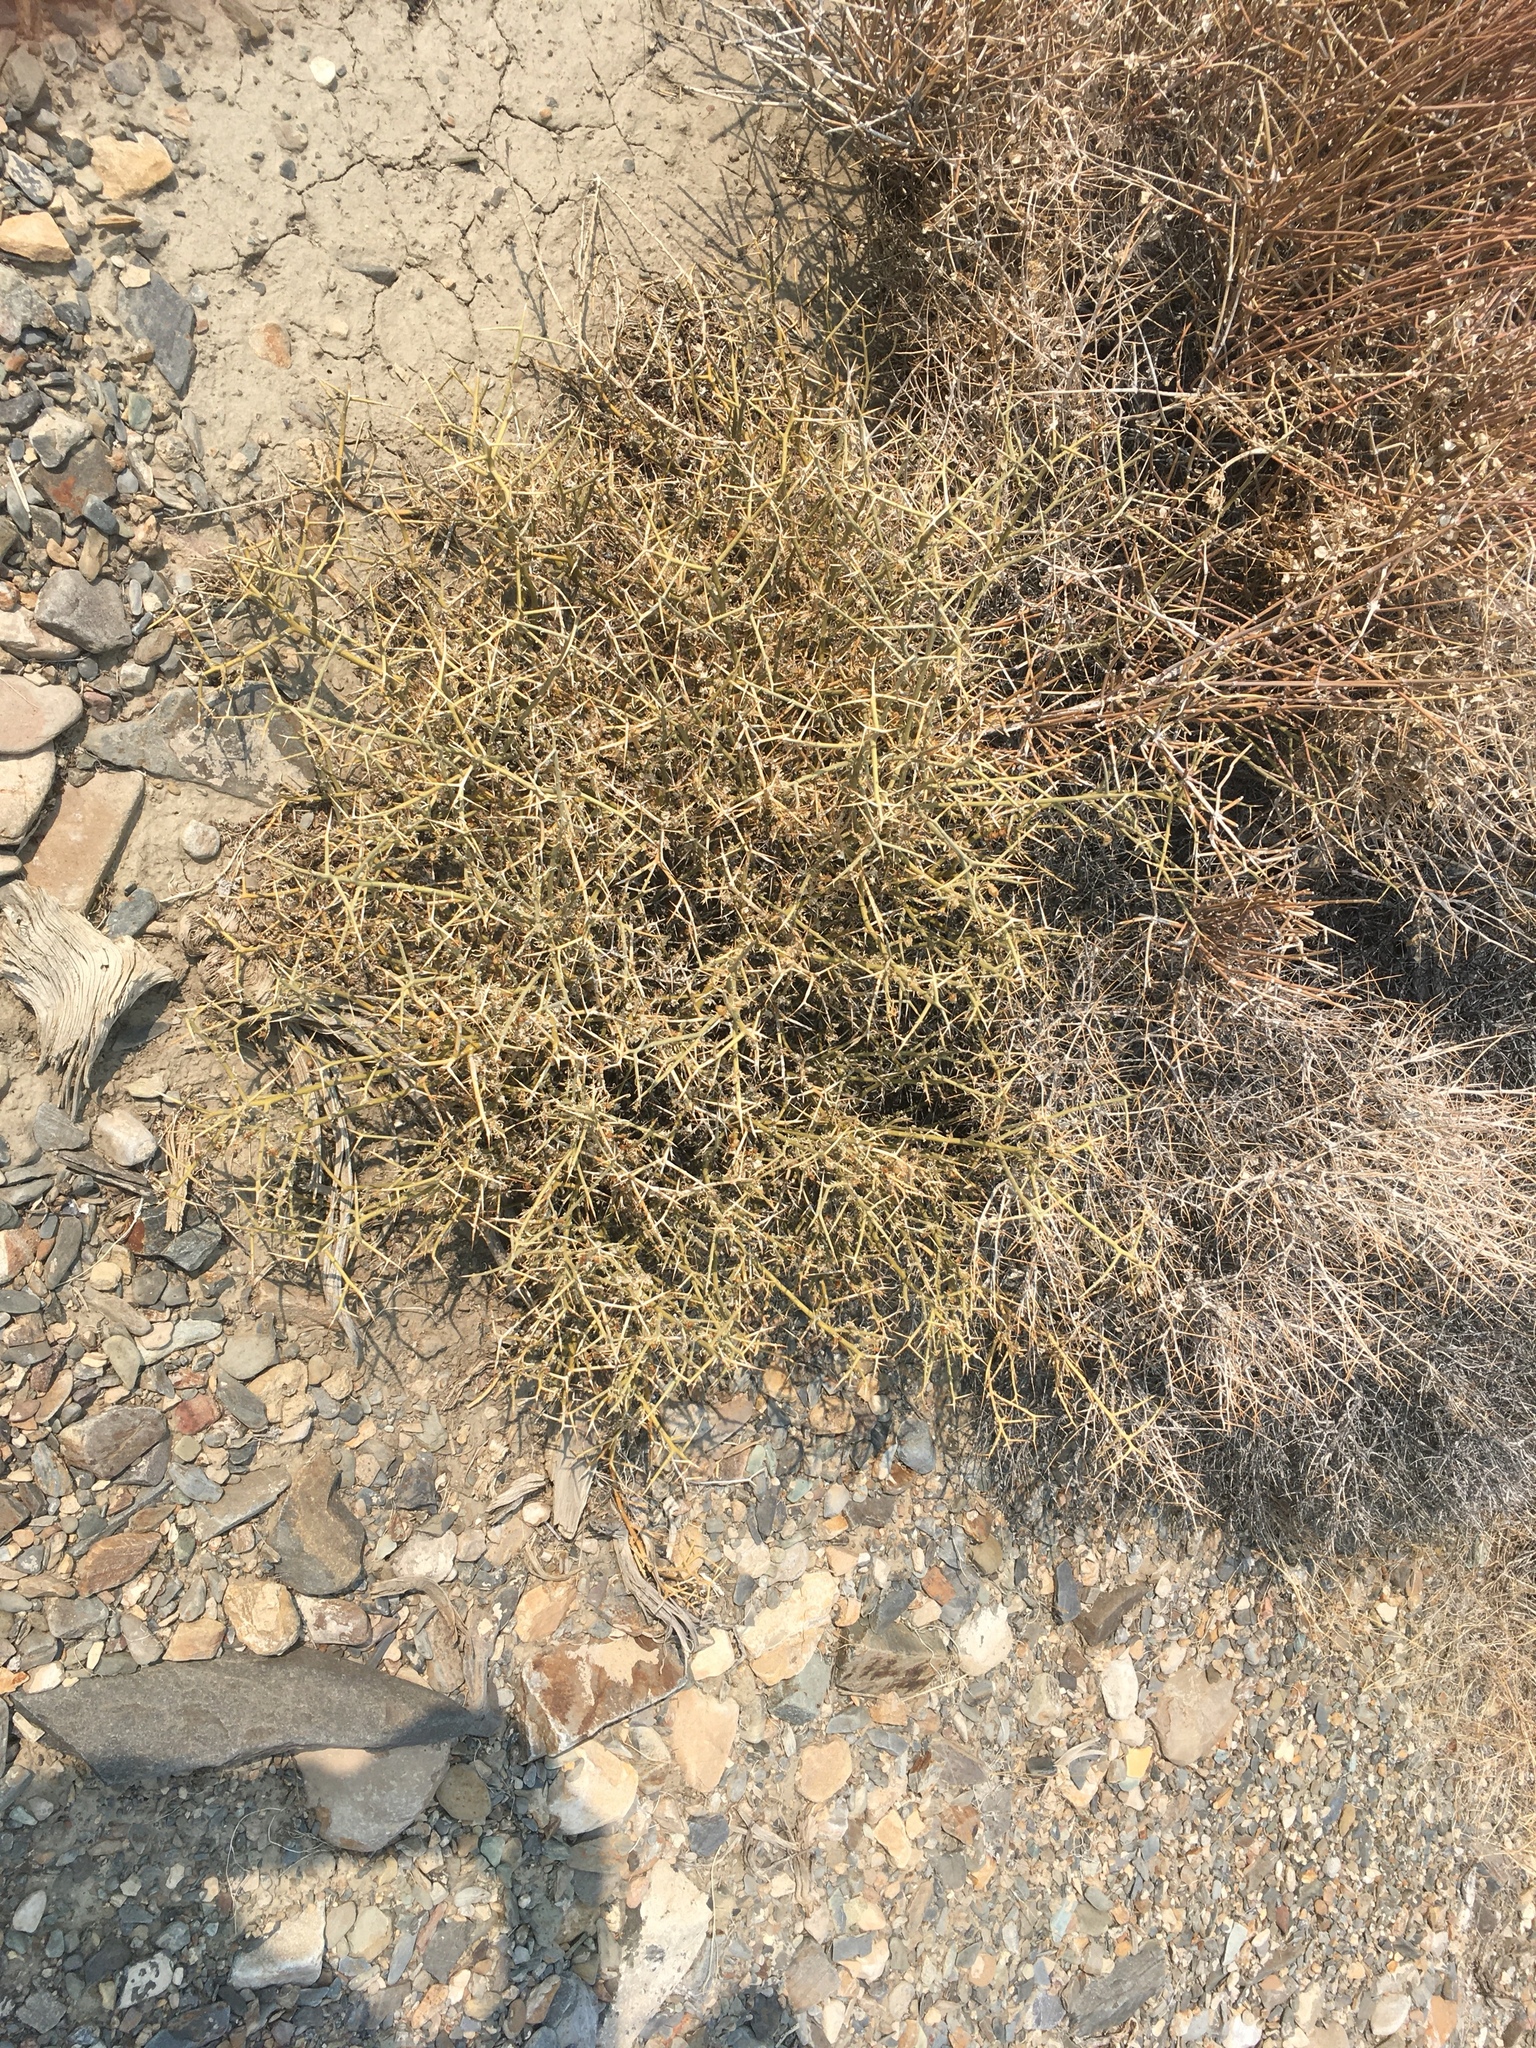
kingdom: Plantae
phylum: Tracheophyta
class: Magnoliopsida
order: Lamiales
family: Oleaceae
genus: Menodora
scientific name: Menodora spinescens
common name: Spiny menodora
